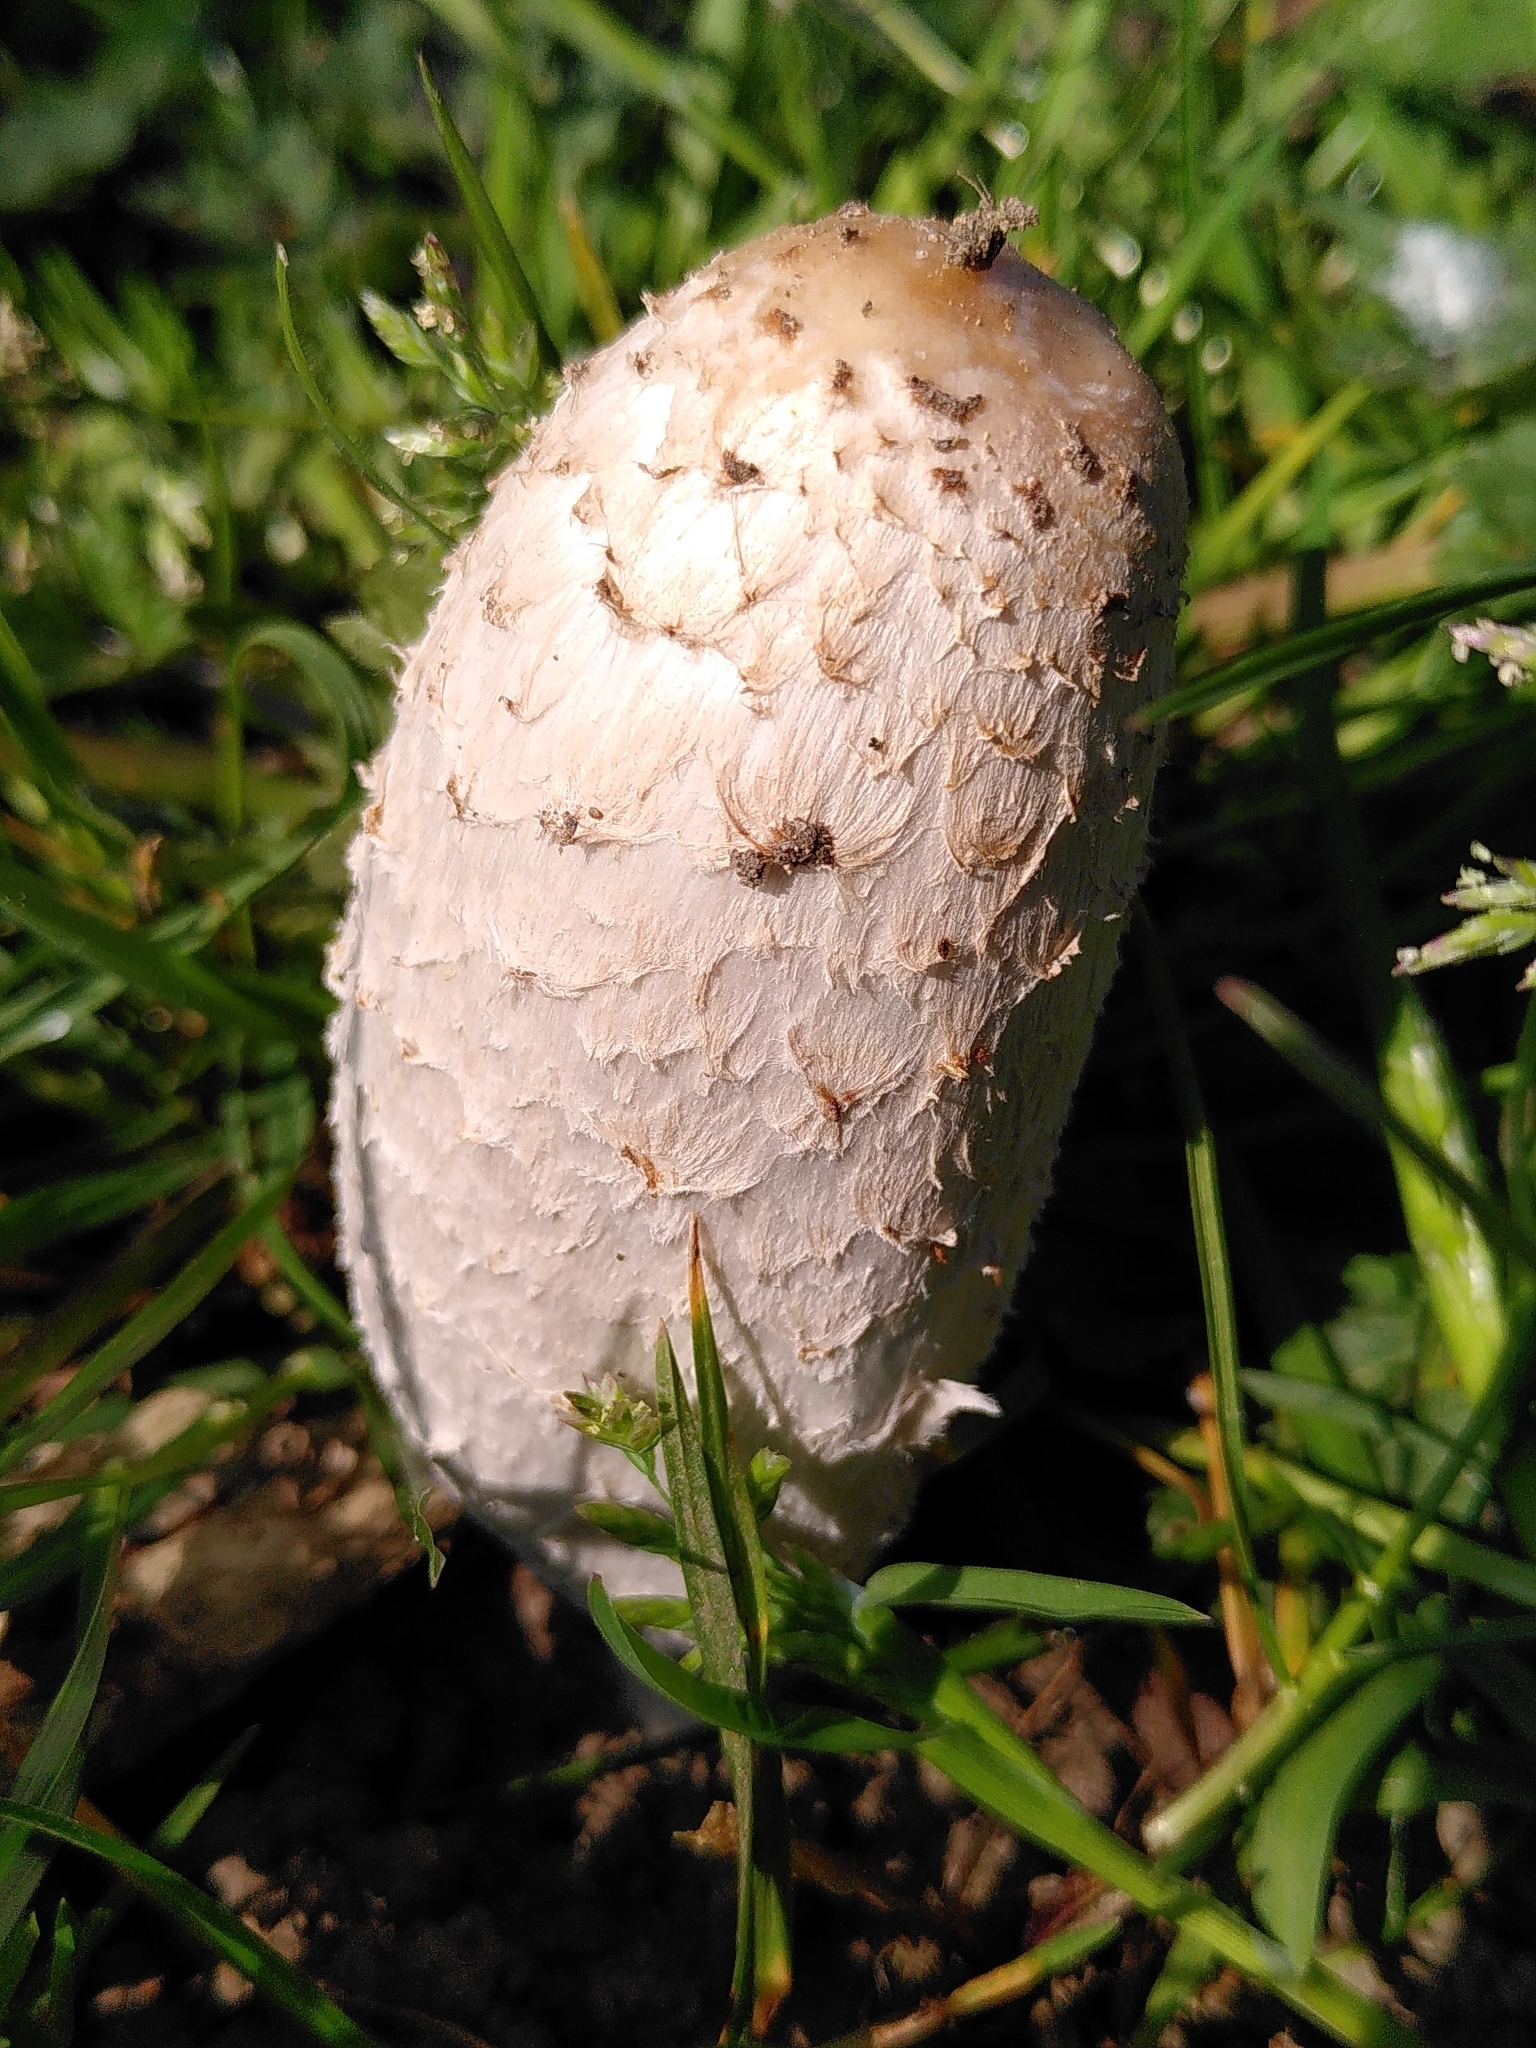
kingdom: Fungi
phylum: Basidiomycota
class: Agaricomycetes
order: Agaricales
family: Agaricaceae
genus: Coprinus
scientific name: Coprinus comatus
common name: Lawyer's wig
